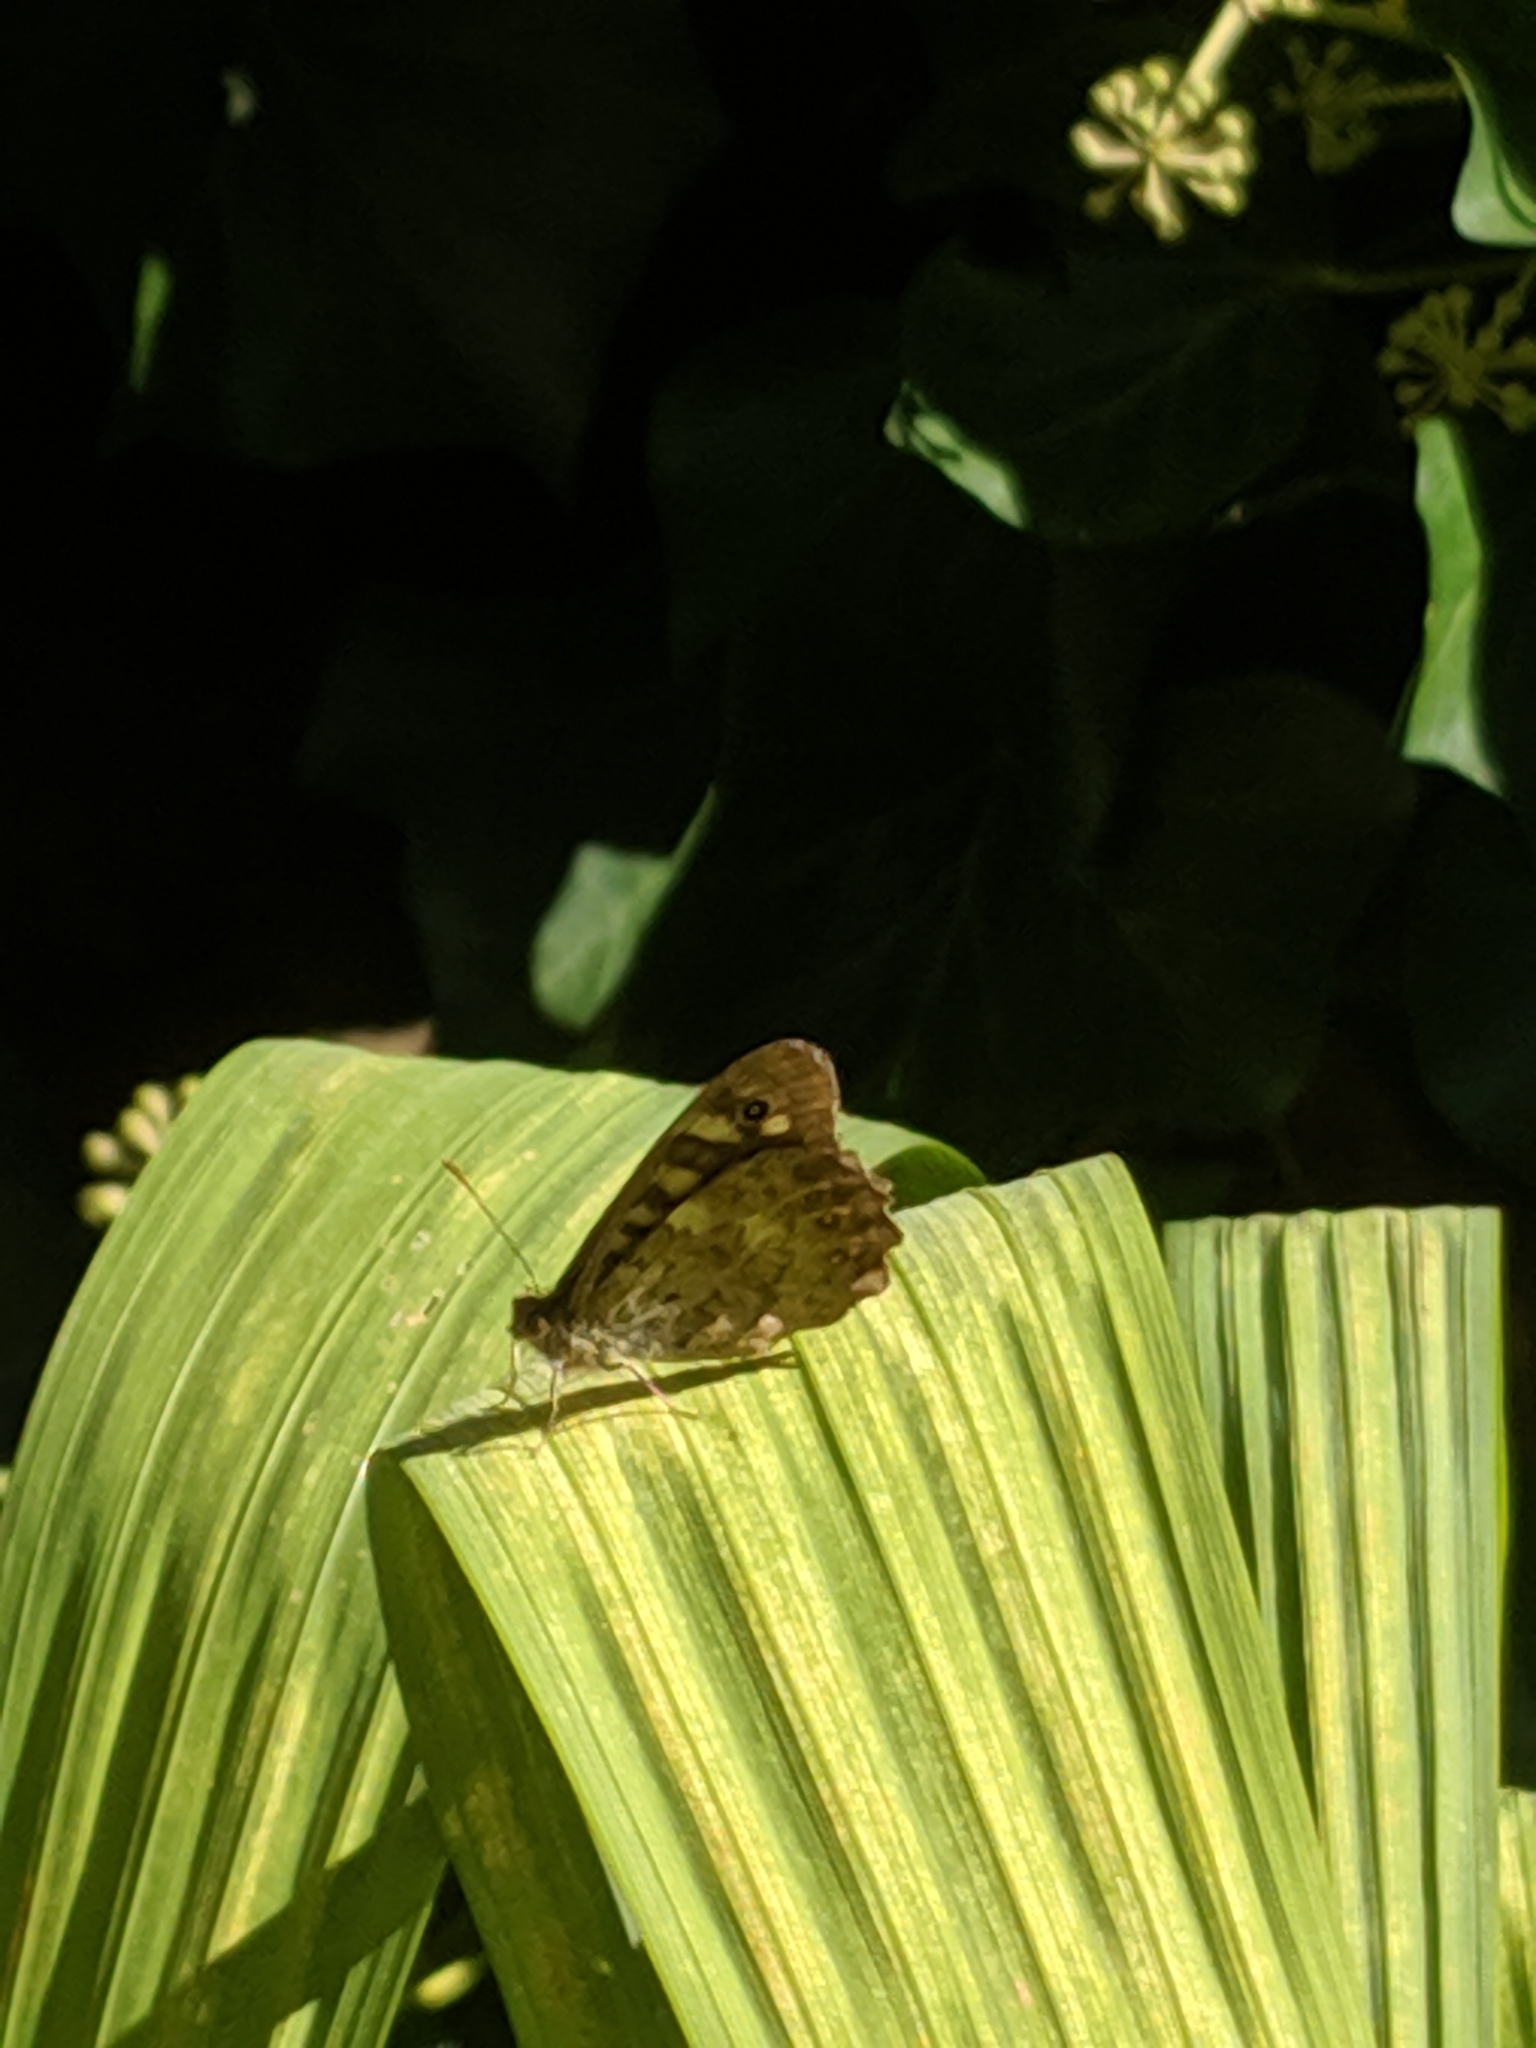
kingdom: Animalia
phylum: Arthropoda
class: Insecta
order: Lepidoptera
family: Nymphalidae
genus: Pararge
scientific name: Pararge aegeria
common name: Speckled wood
